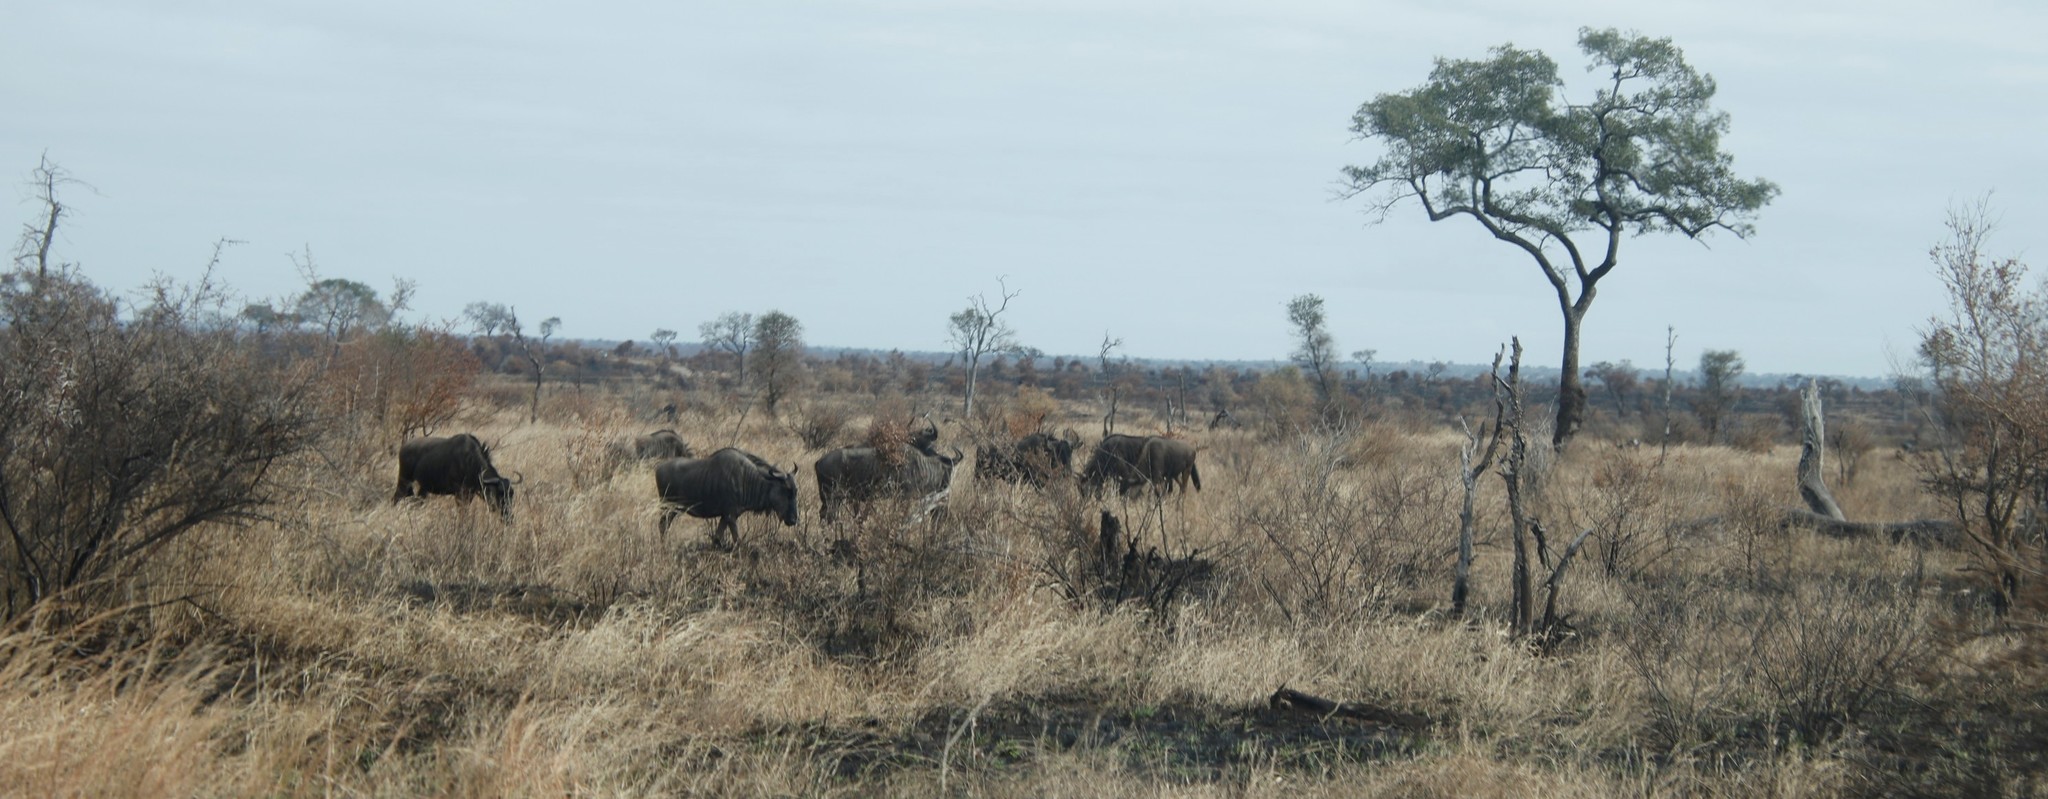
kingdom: Animalia
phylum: Chordata
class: Mammalia
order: Artiodactyla
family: Bovidae
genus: Connochaetes
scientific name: Connochaetes taurinus
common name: Blue wildebeest
